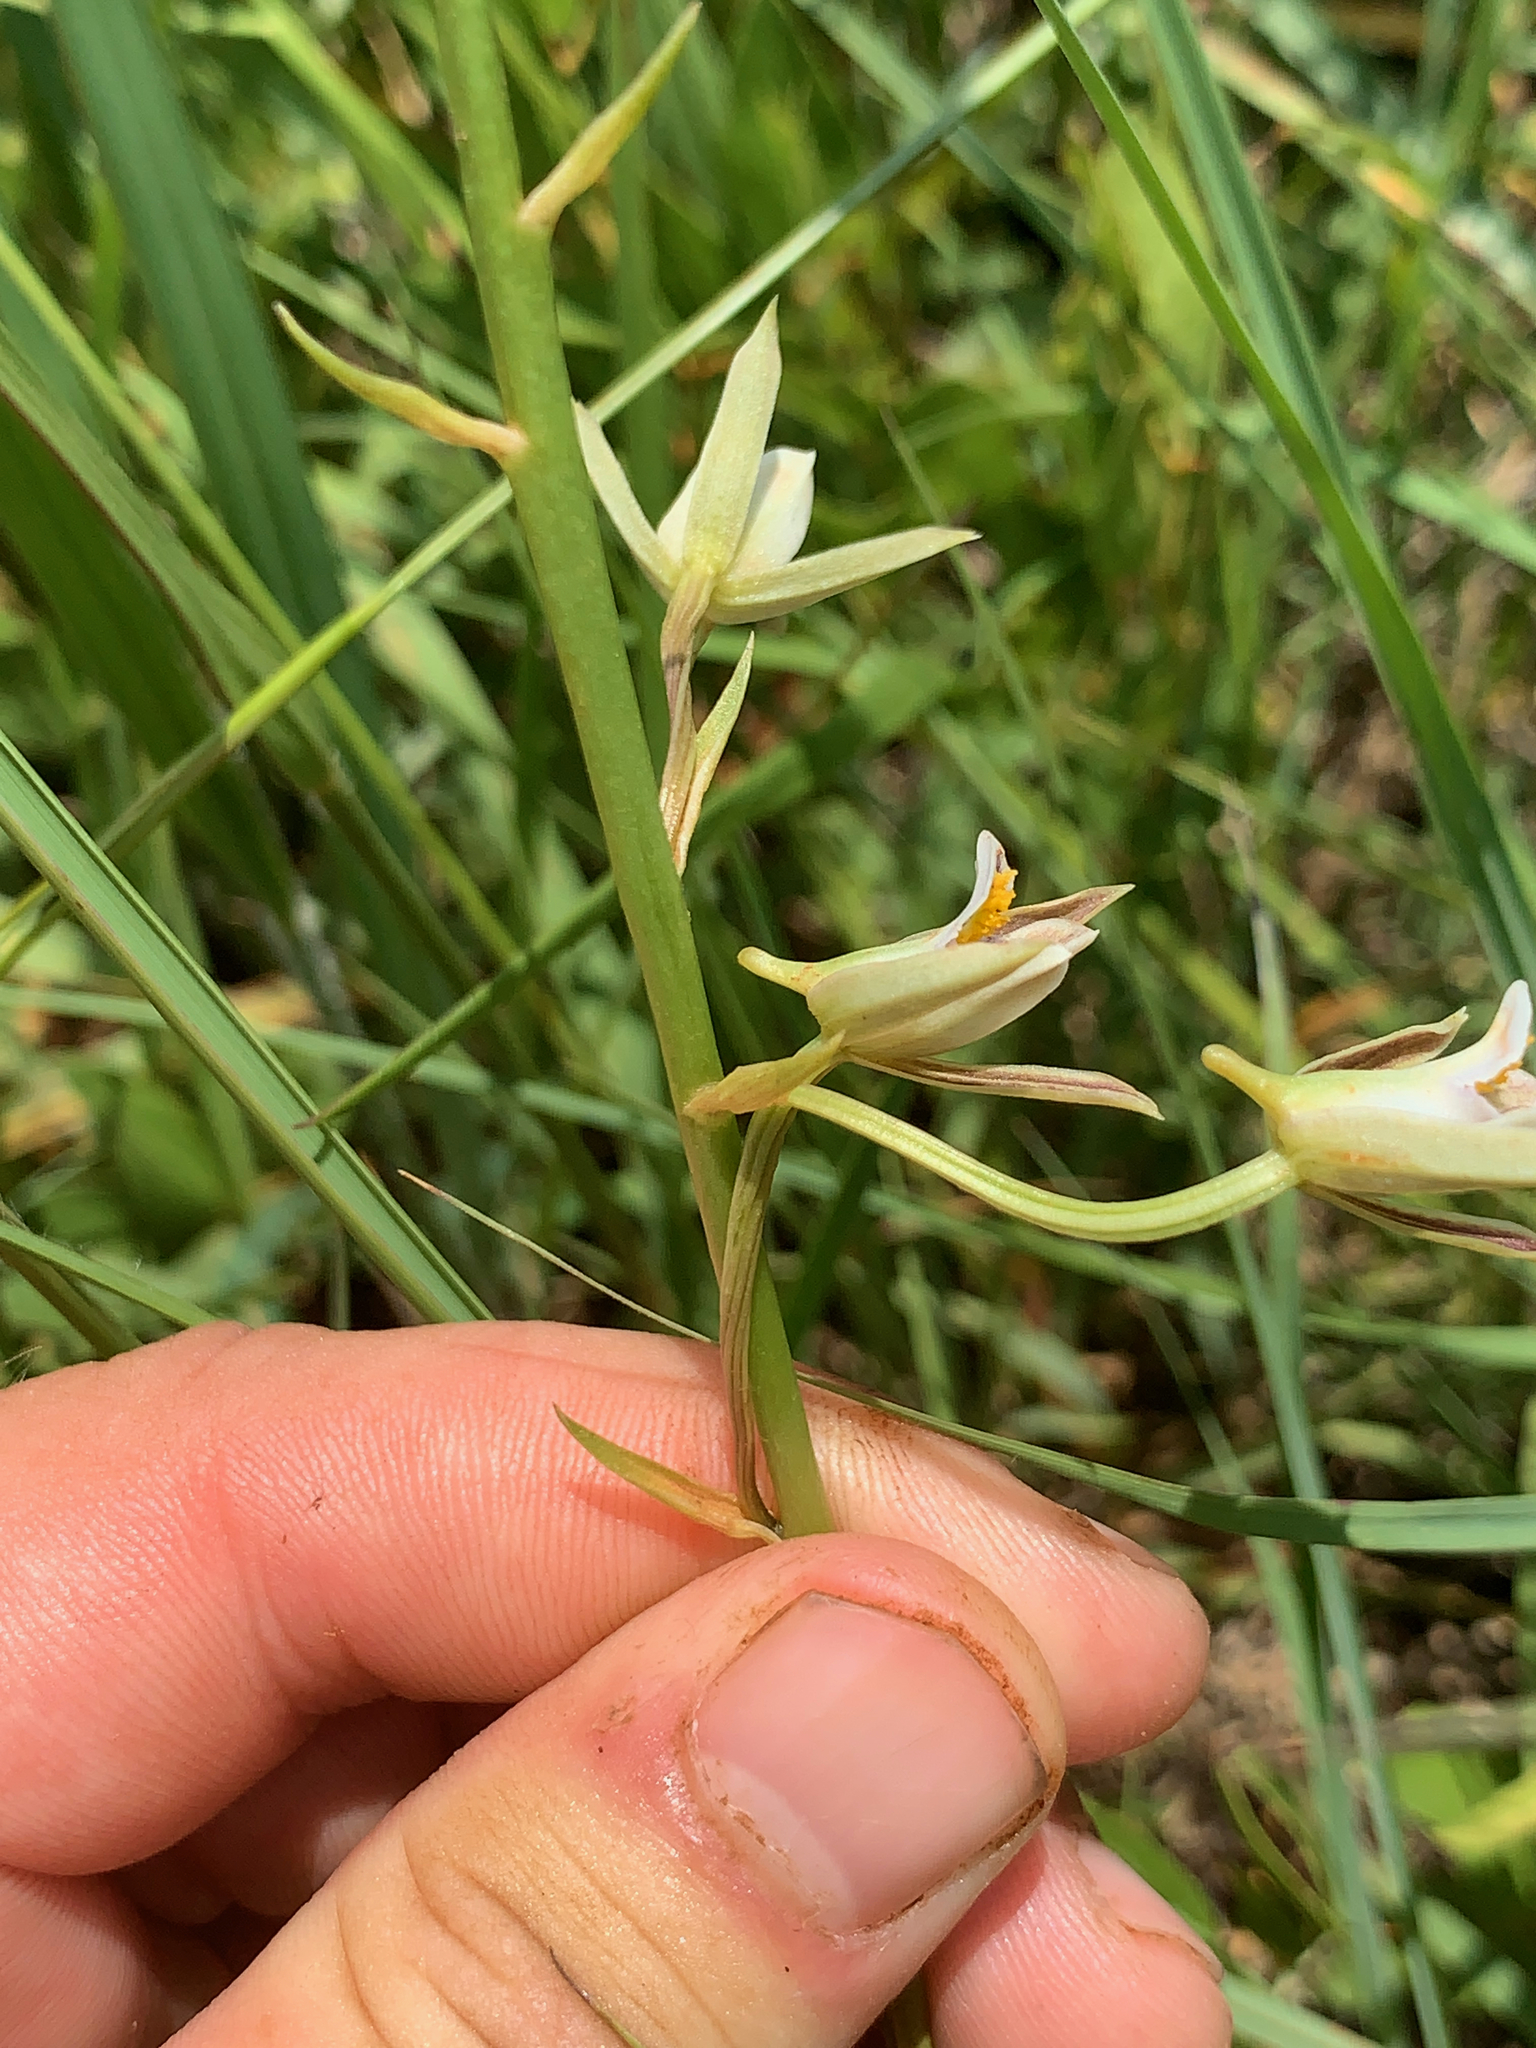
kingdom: Plantae
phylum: Tracheophyta
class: Liliopsida
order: Asparagales
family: Orchidaceae
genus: Eulophia
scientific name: Eulophia hians
